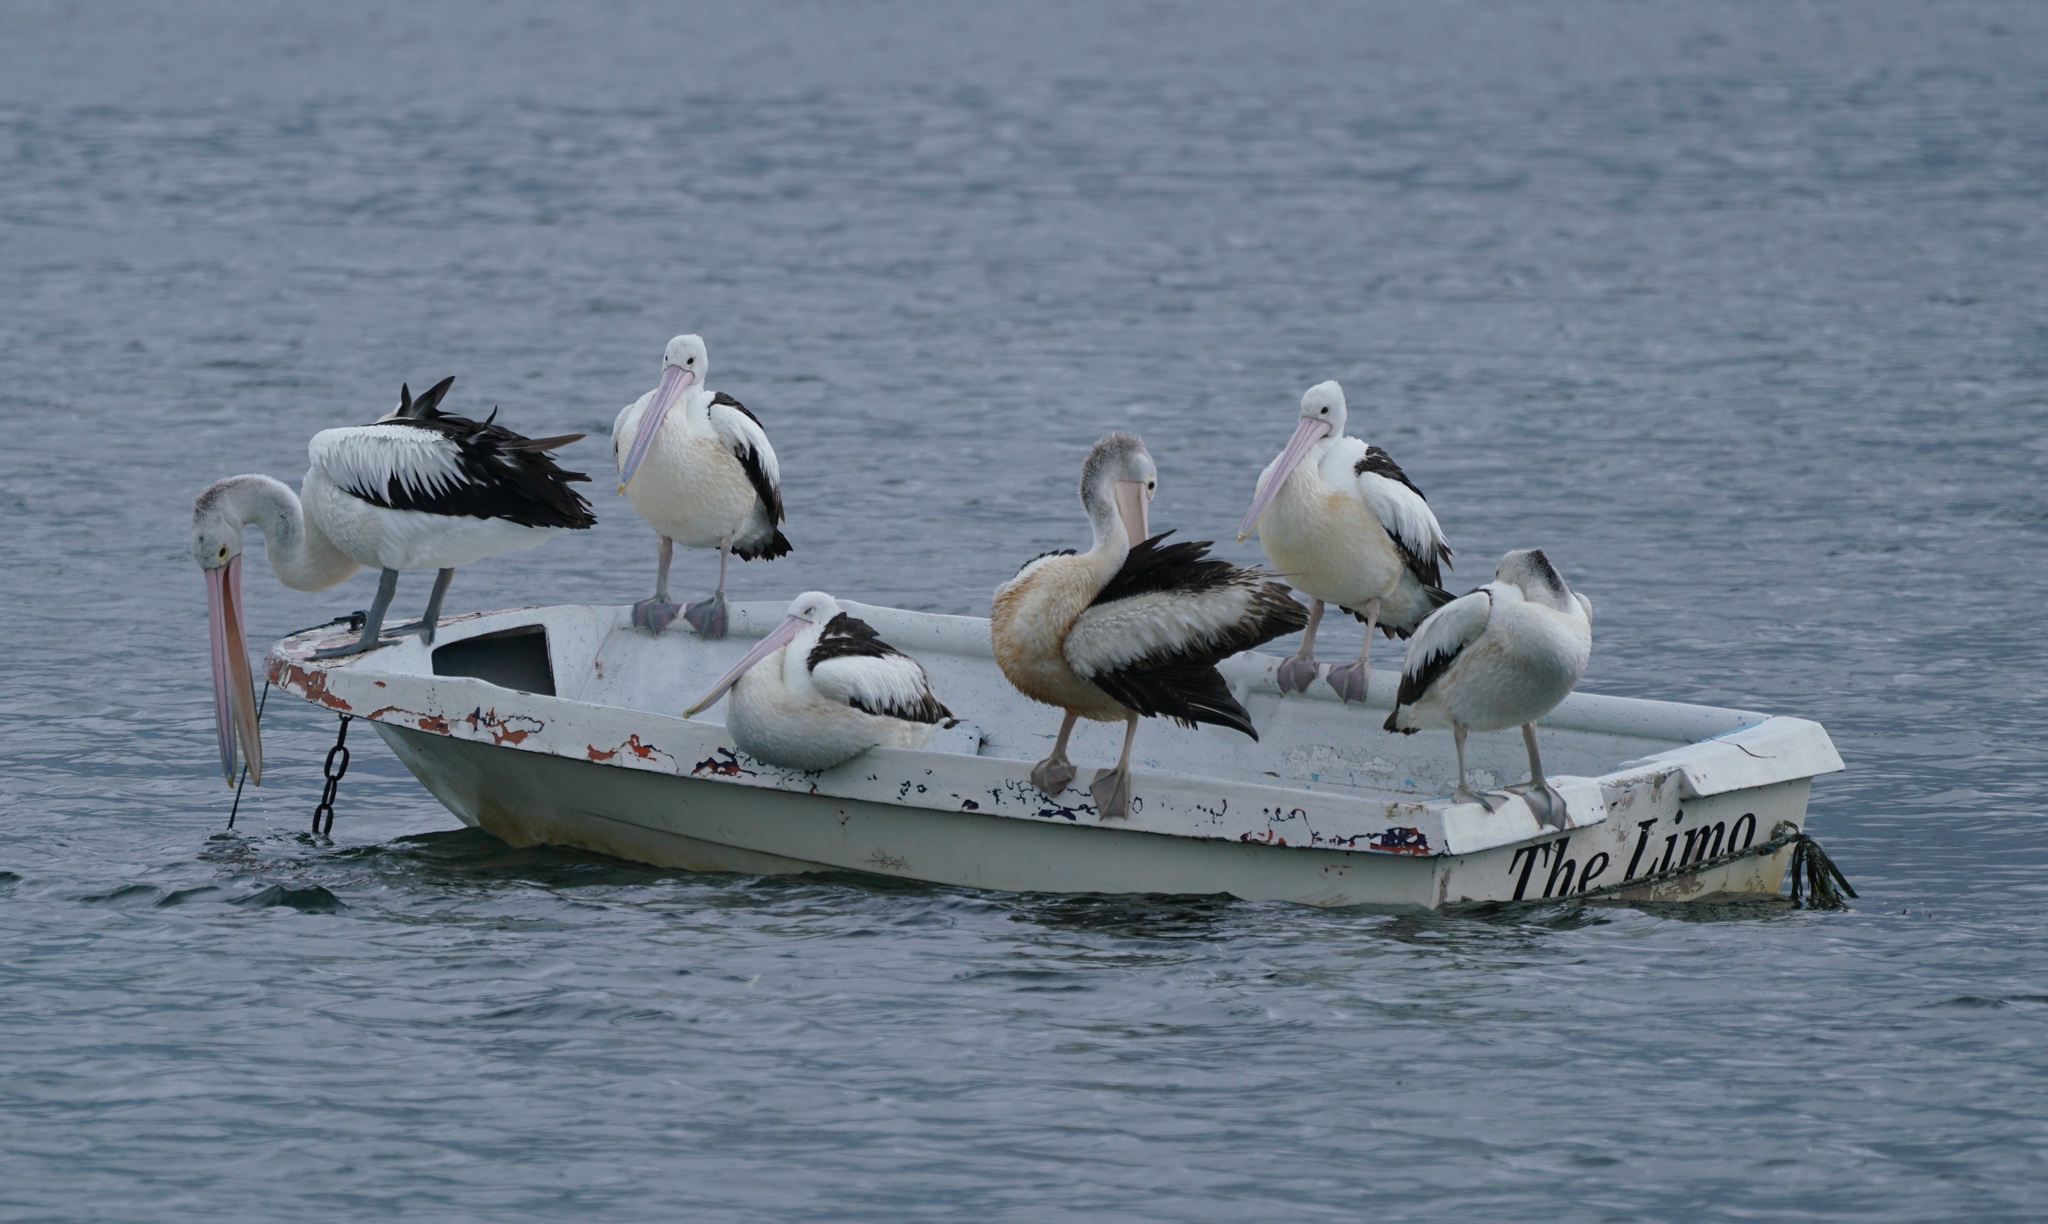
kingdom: Animalia
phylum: Chordata
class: Aves
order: Pelecaniformes
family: Pelecanidae
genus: Pelecanus
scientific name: Pelecanus conspicillatus
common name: Australian pelican
